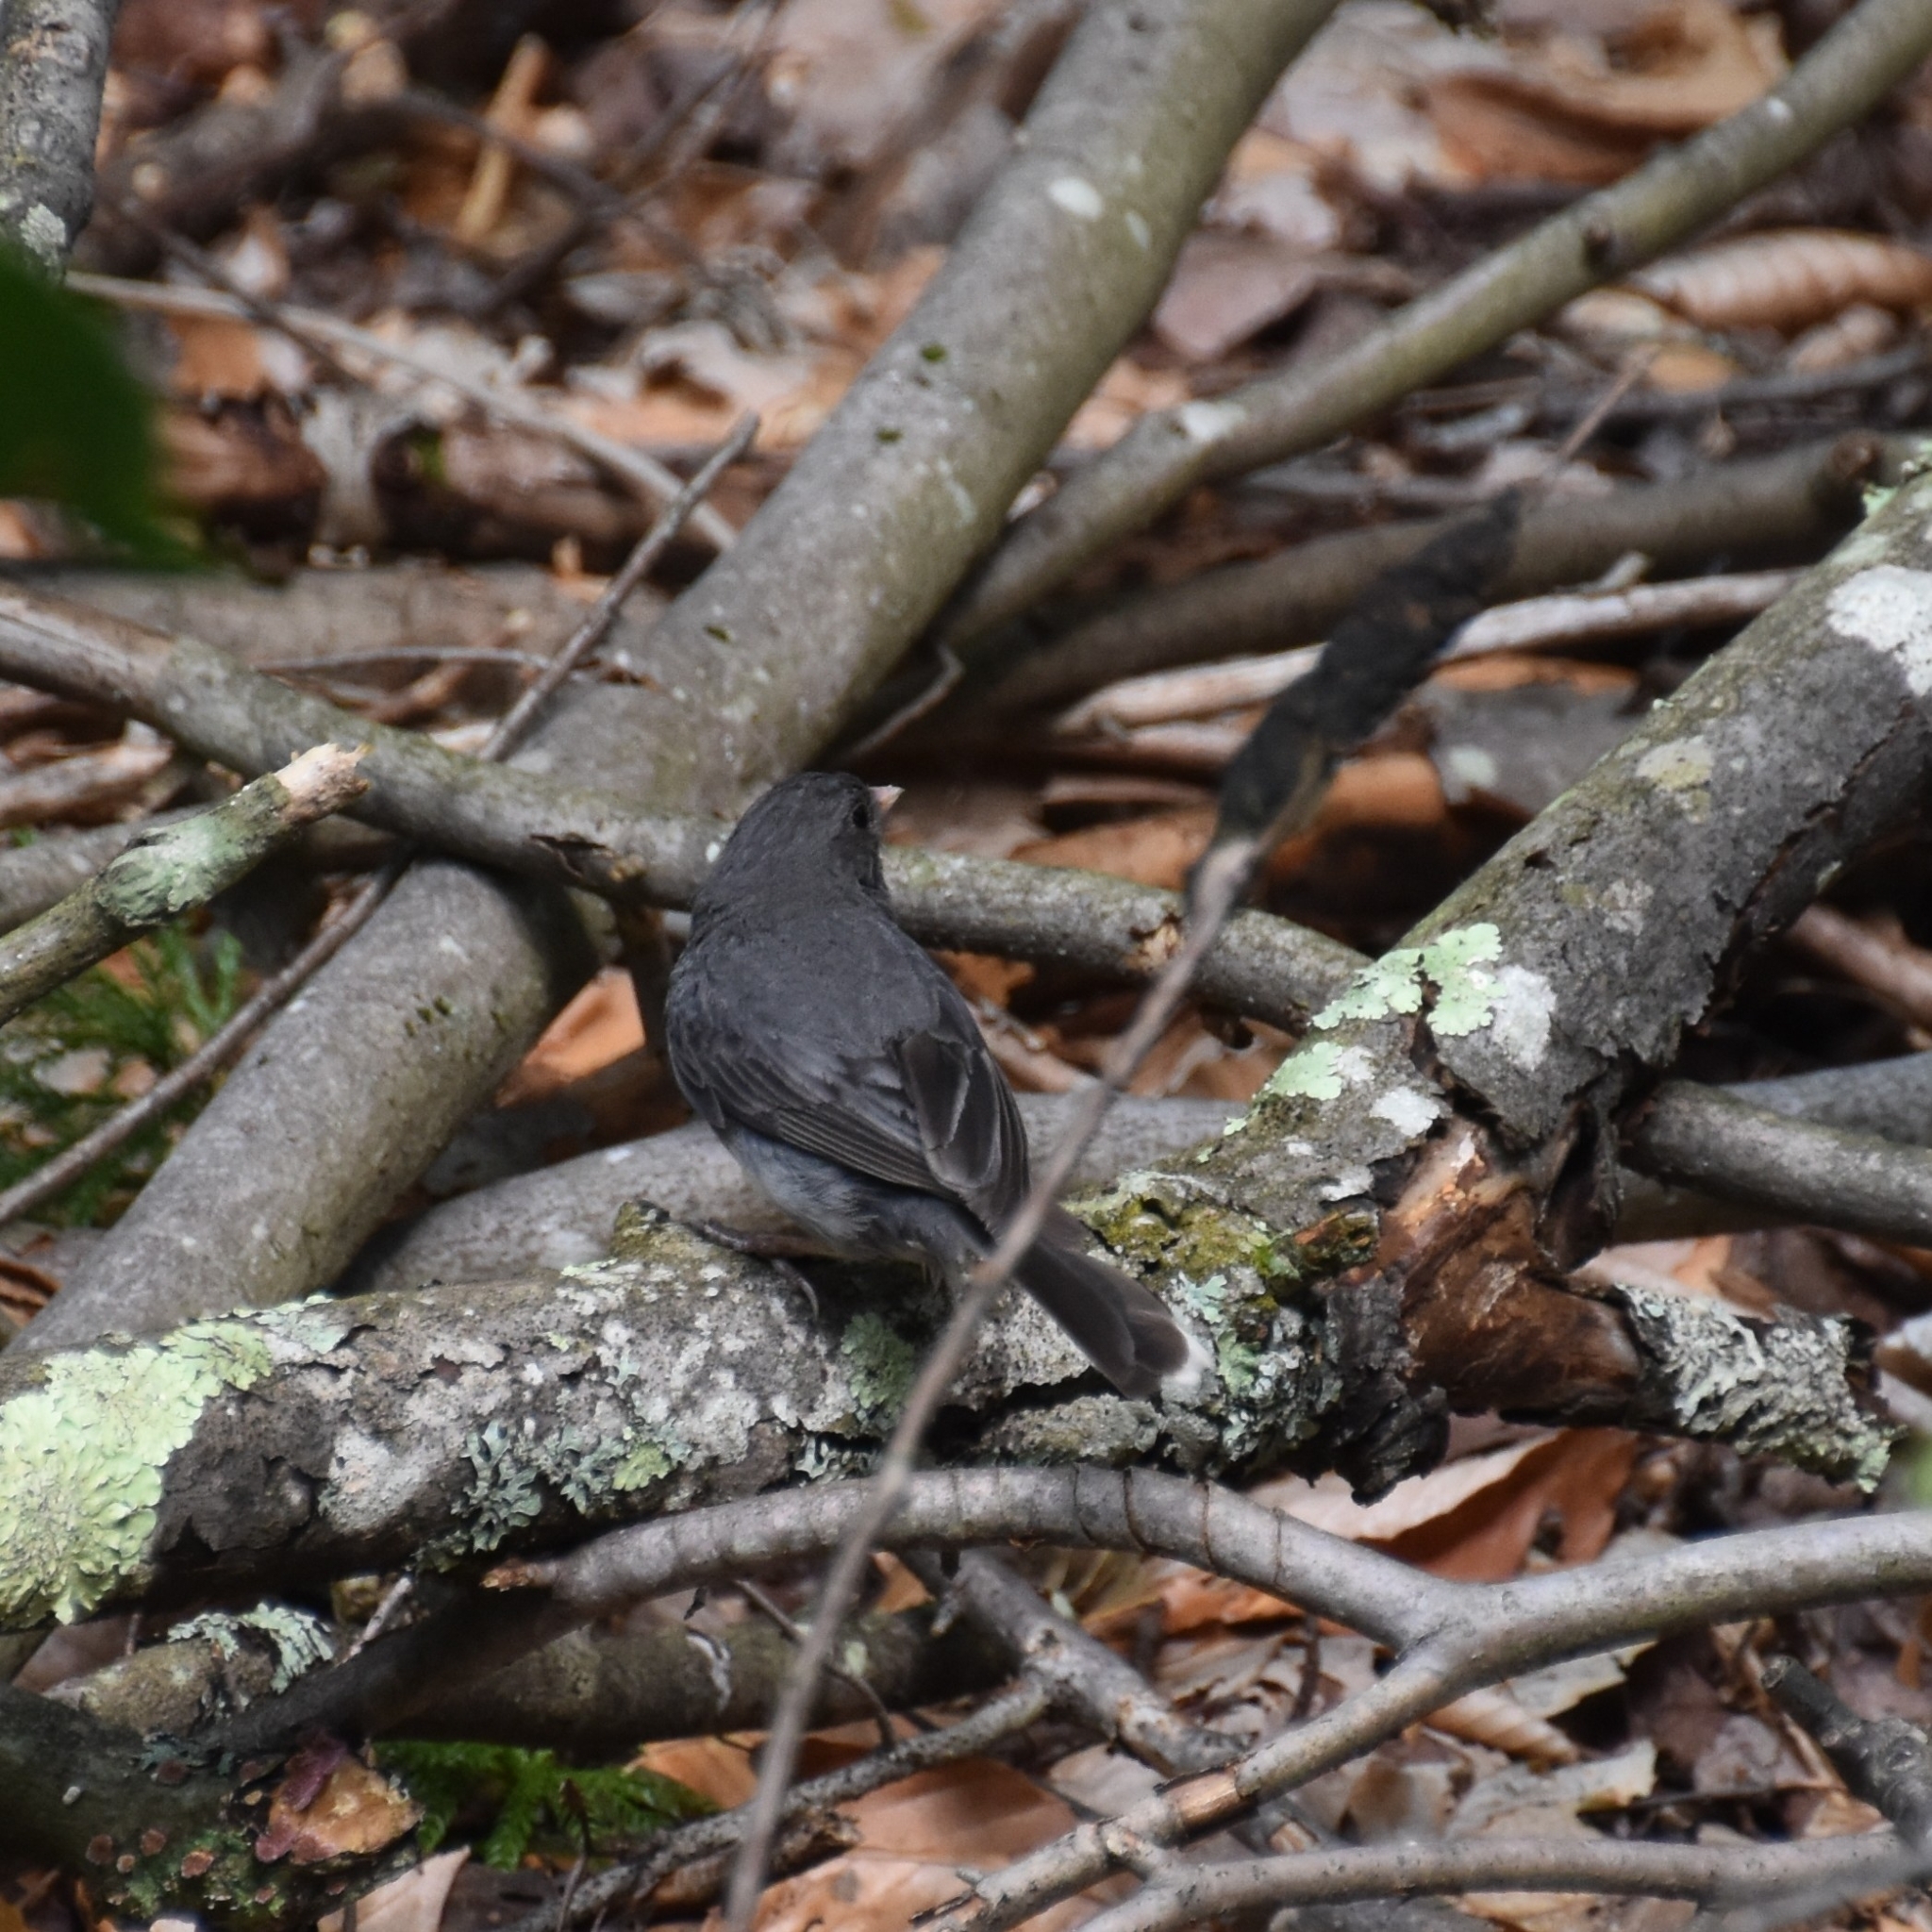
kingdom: Animalia
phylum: Chordata
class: Aves
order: Passeriformes
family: Passerellidae
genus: Junco
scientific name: Junco hyemalis
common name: Dark-eyed junco
